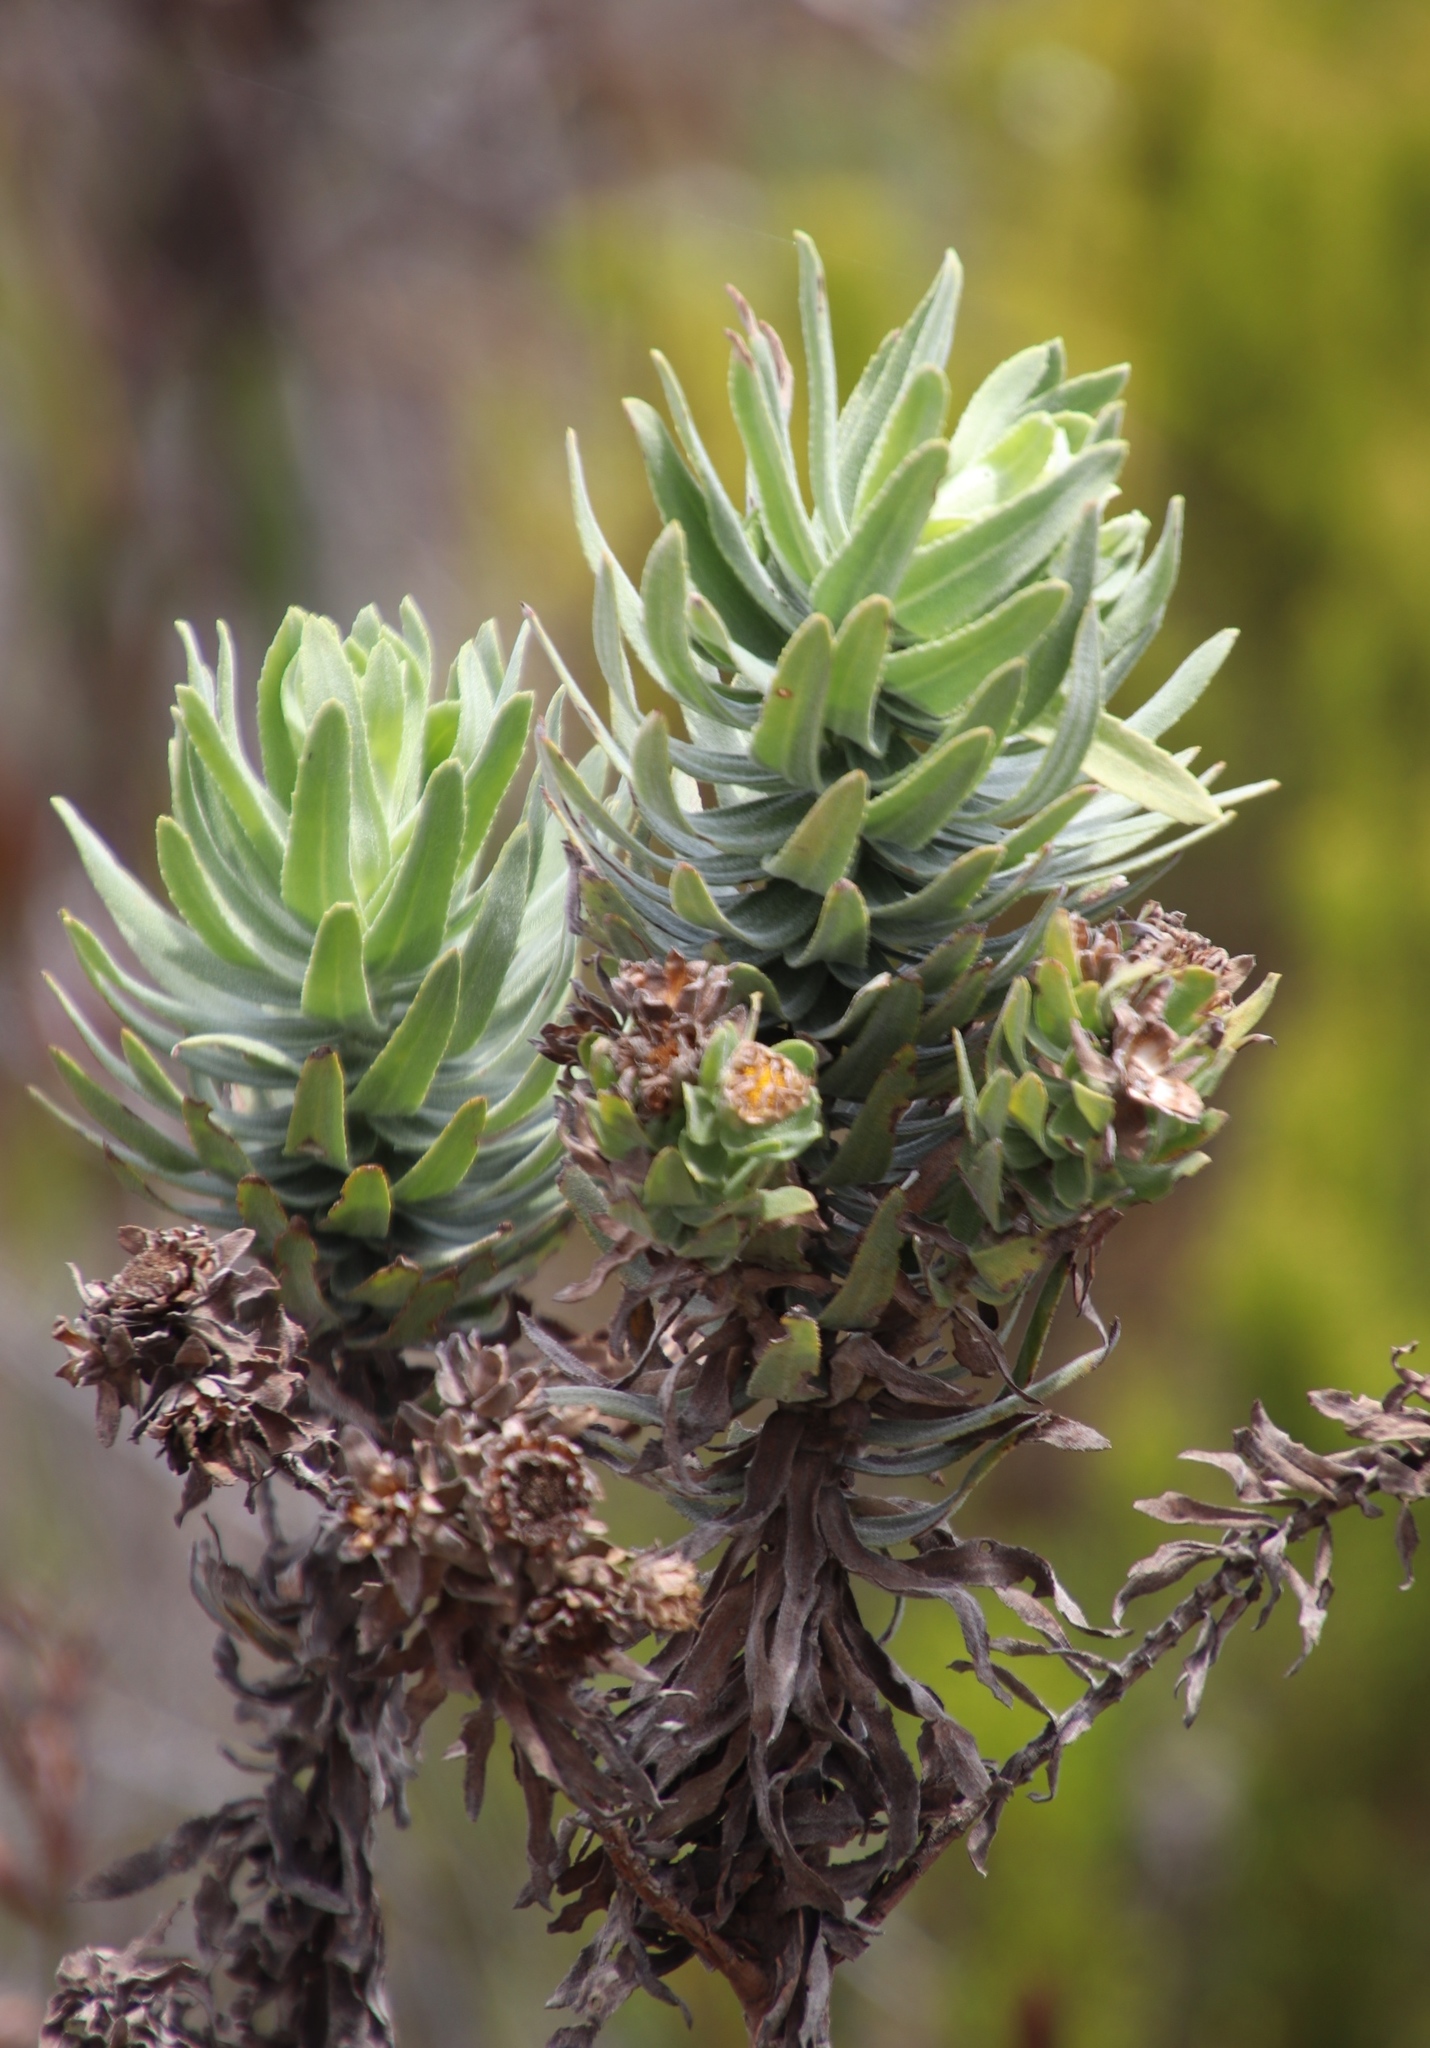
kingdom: Plantae
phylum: Tracheophyta
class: Magnoliopsida
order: Asterales
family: Asteraceae
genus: Osmitopsis
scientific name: Osmitopsis asteriscoides
